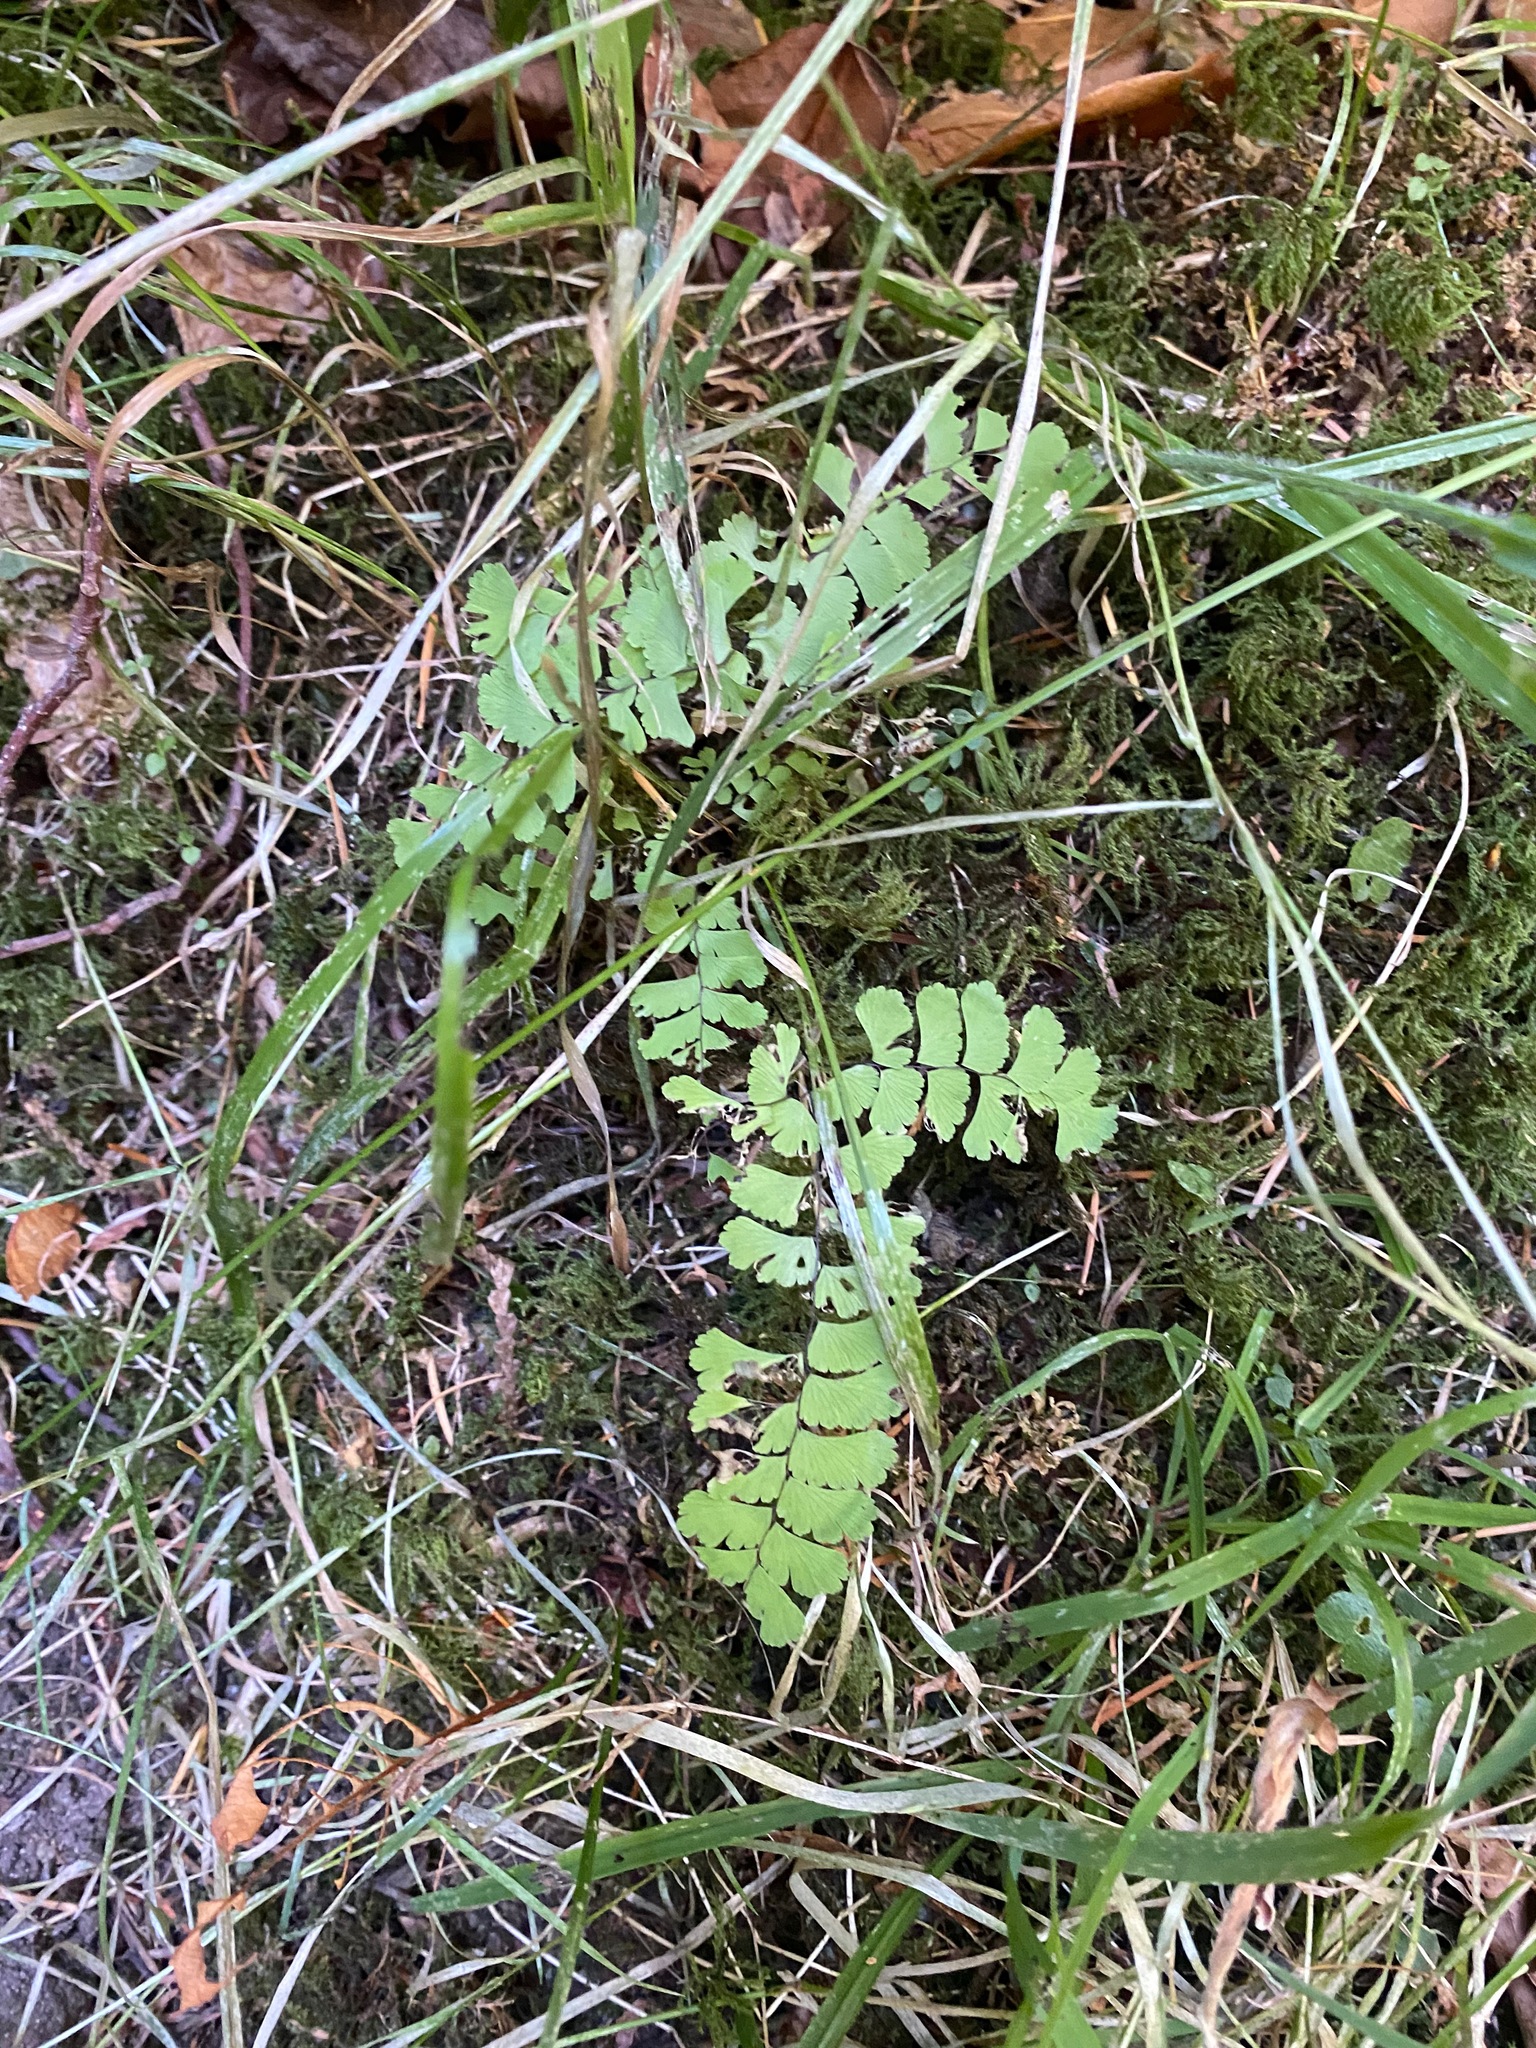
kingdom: Plantae
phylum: Tracheophyta
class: Polypodiopsida
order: Polypodiales
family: Pteridaceae
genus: Adiantum
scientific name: Adiantum aleuticum
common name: Aleutian maidenhair fern
